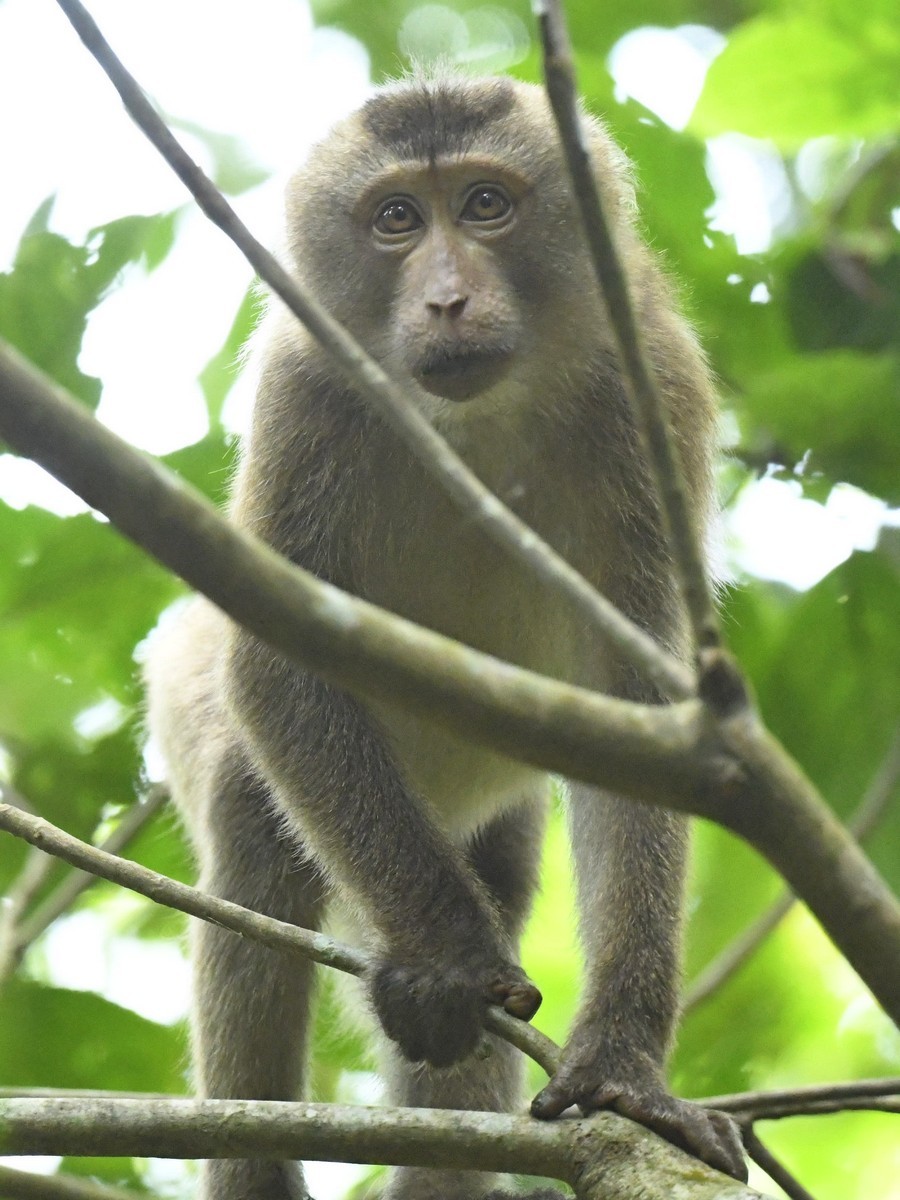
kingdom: Animalia
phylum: Chordata
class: Mammalia
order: Primates
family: Cercopithecidae
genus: Macaca
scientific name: Macaca leonina
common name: Northern pig-tailed macaque
